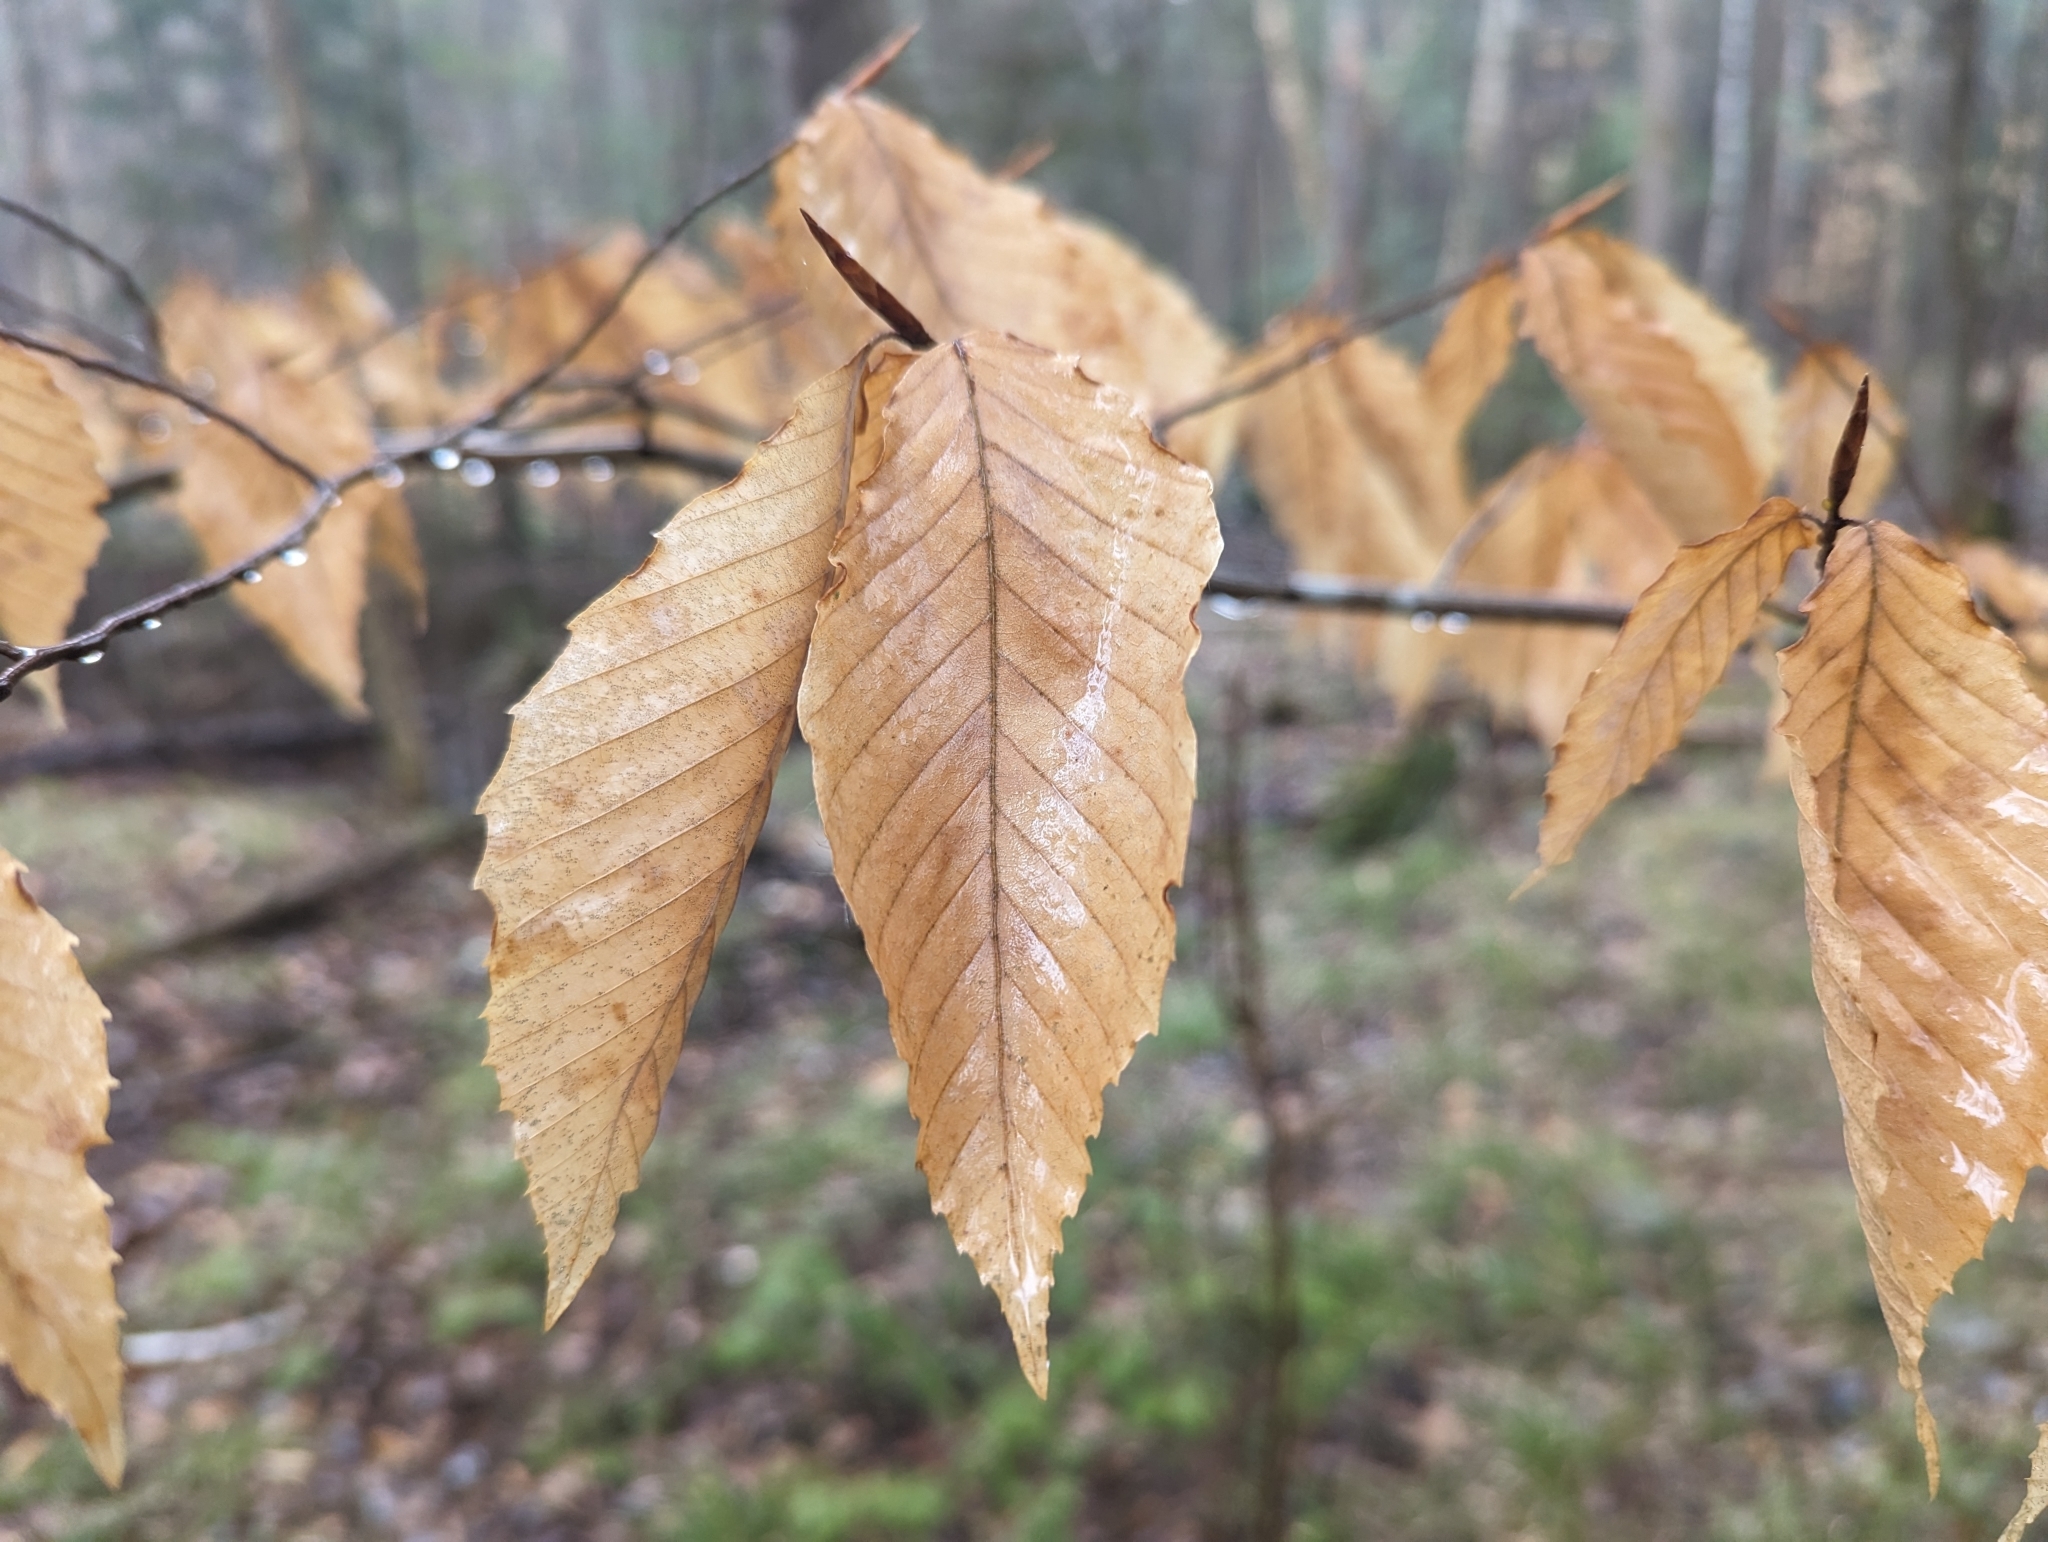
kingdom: Plantae
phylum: Tracheophyta
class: Magnoliopsida
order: Fagales
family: Fagaceae
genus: Fagus
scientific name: Fagus grandifolia
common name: American beech
